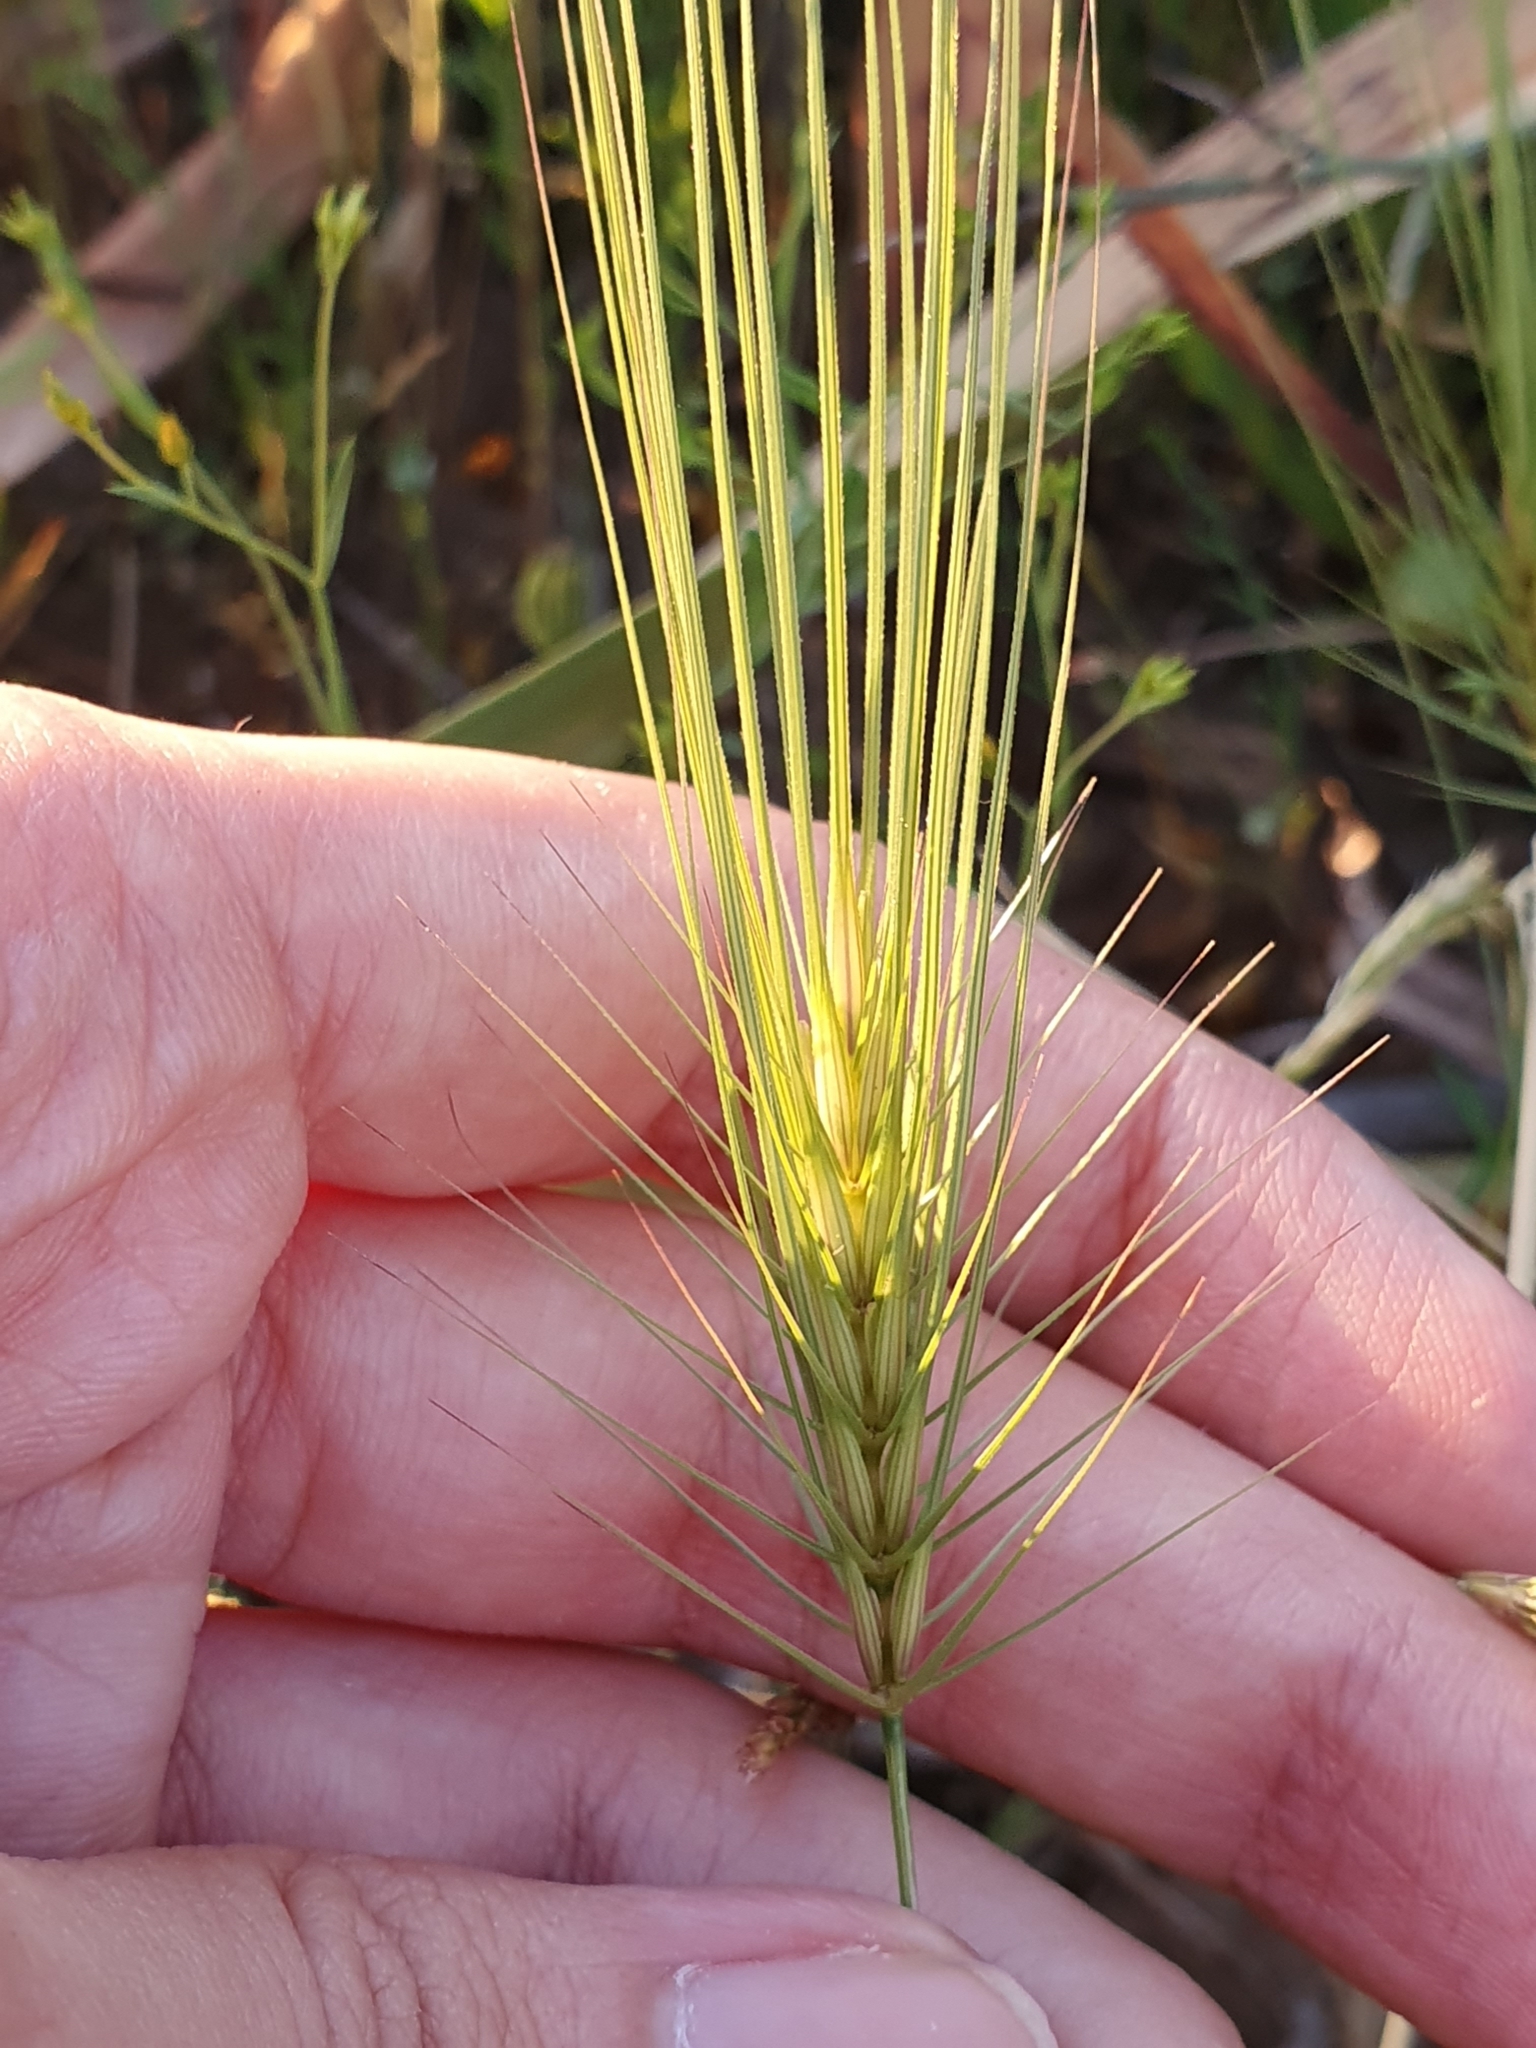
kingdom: Plantae
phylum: Tracheophyta
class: Liliopsida
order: Poales
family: Poaceae
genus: Taeniatherum
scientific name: Taeniatherum caput-medusae
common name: Medusahead
